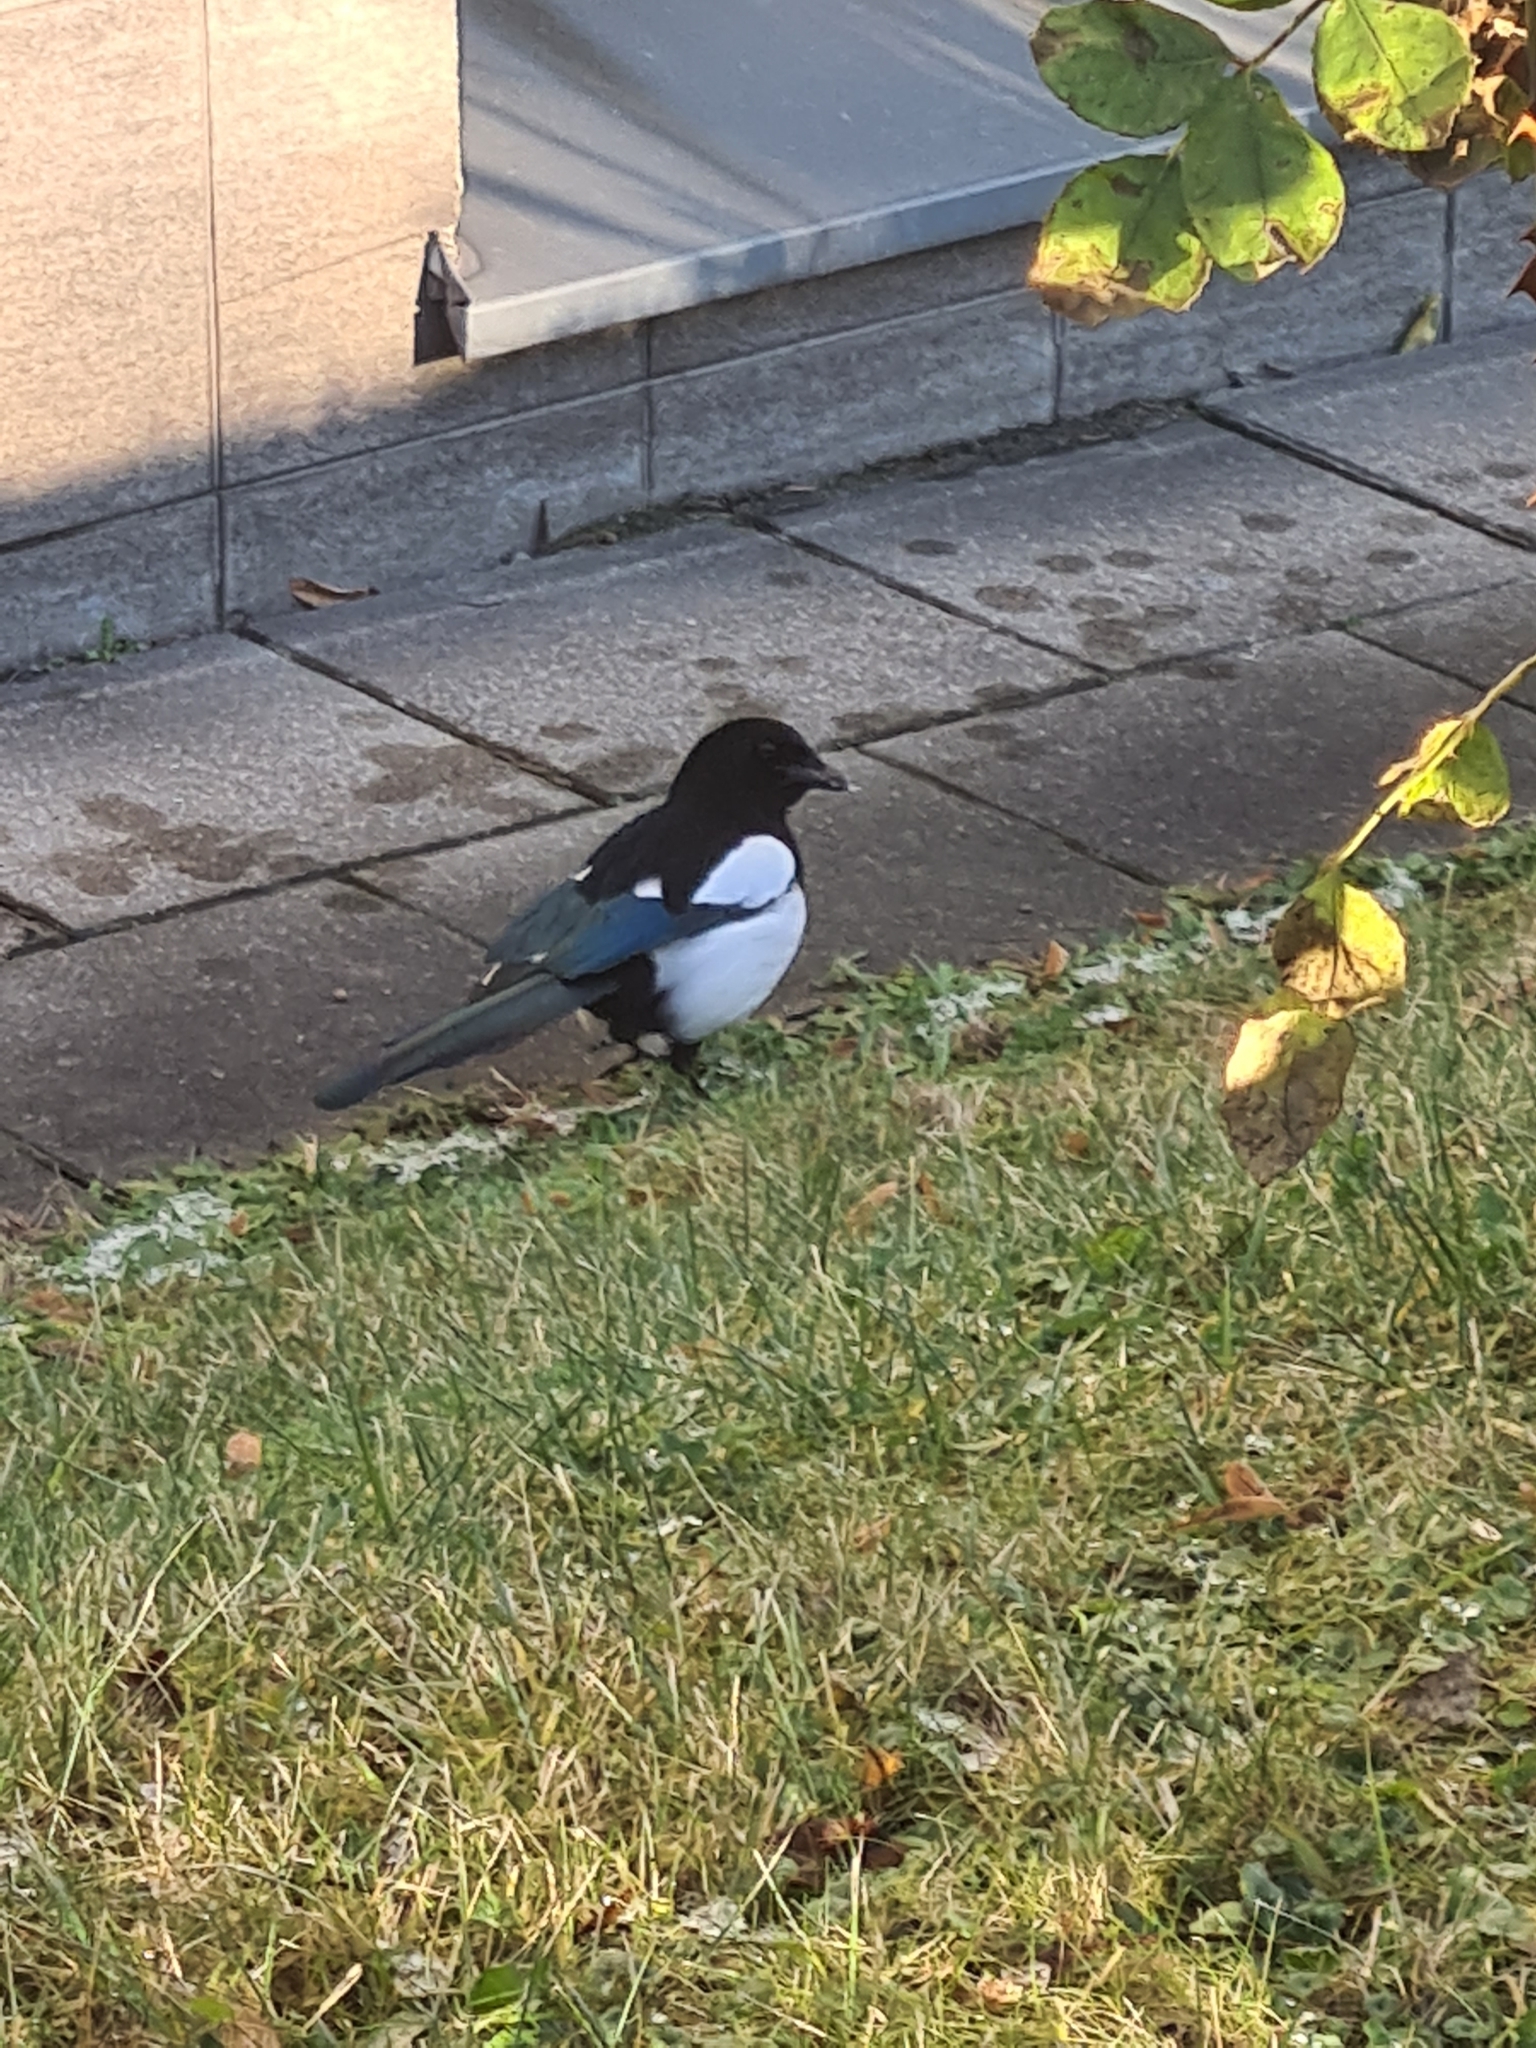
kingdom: Animalia
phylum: Chordata
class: Aves
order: Passeriformes
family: Corvidae
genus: Pica
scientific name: Pica pica
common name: Eurasian magpie
